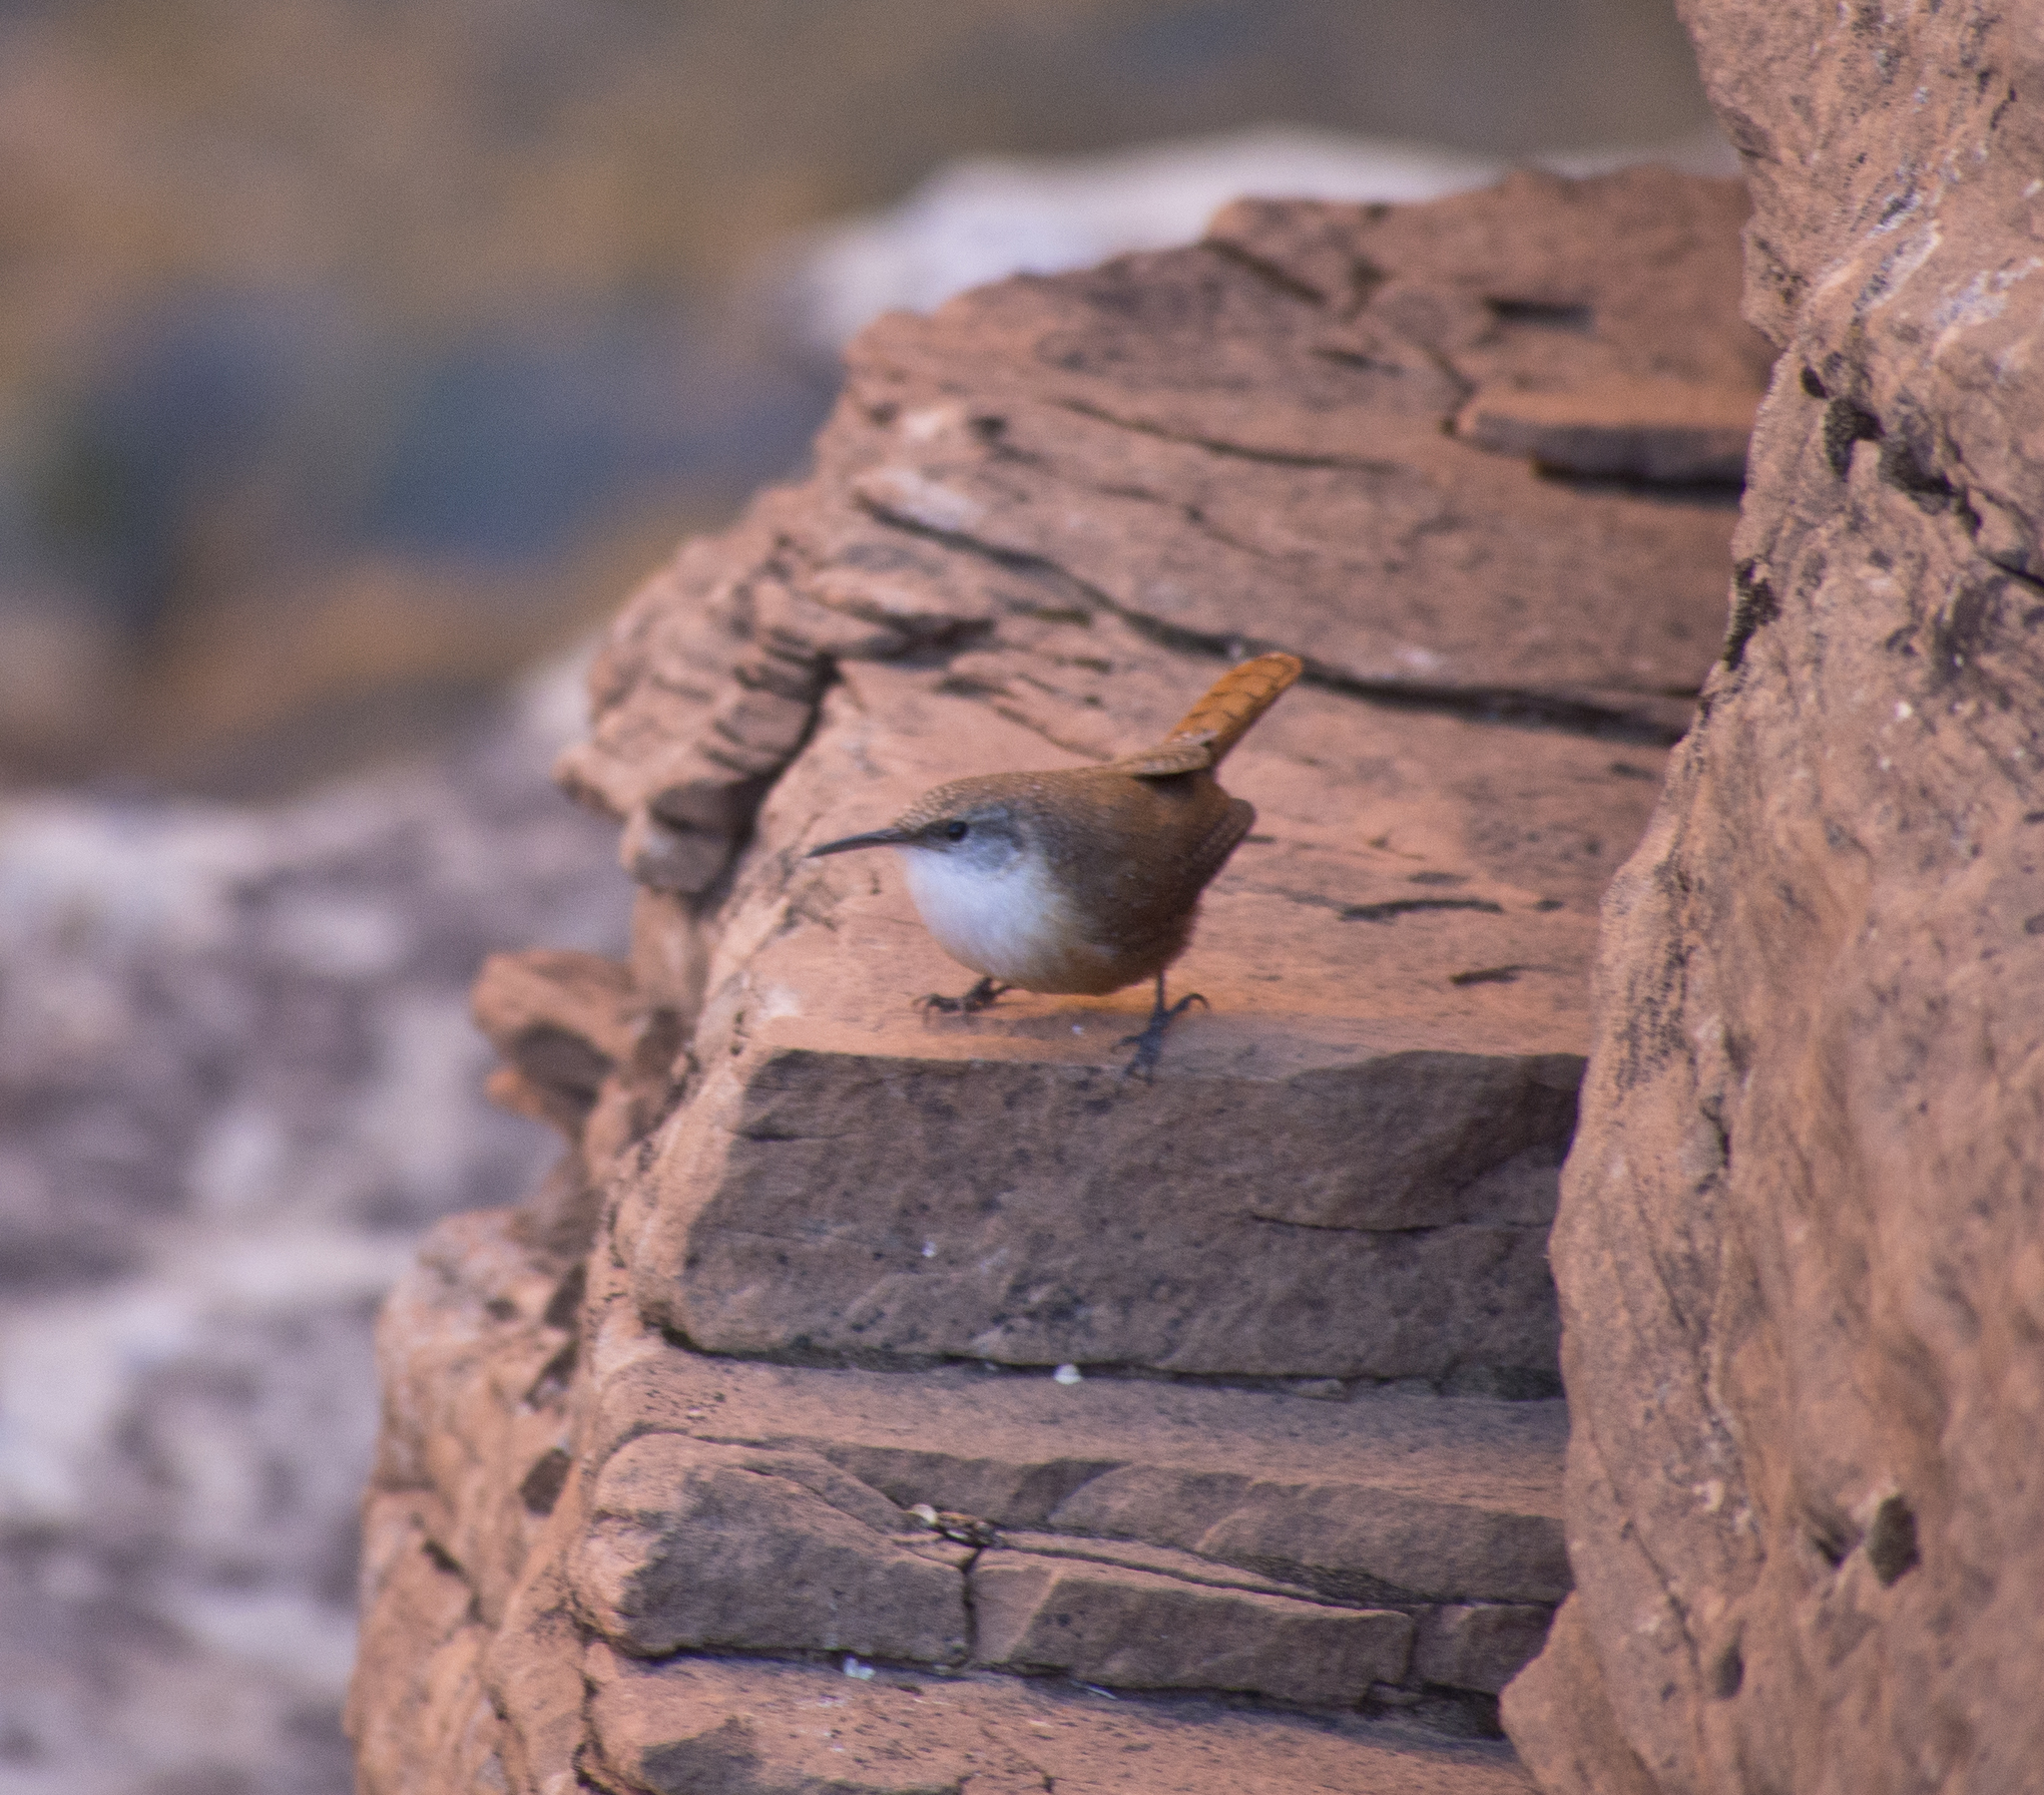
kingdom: Animalia
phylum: Chordata
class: Aves
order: Passeriformes
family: Troglodytidae
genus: Catherpes
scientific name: Catherpes mexicanus
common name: Canyon wren
